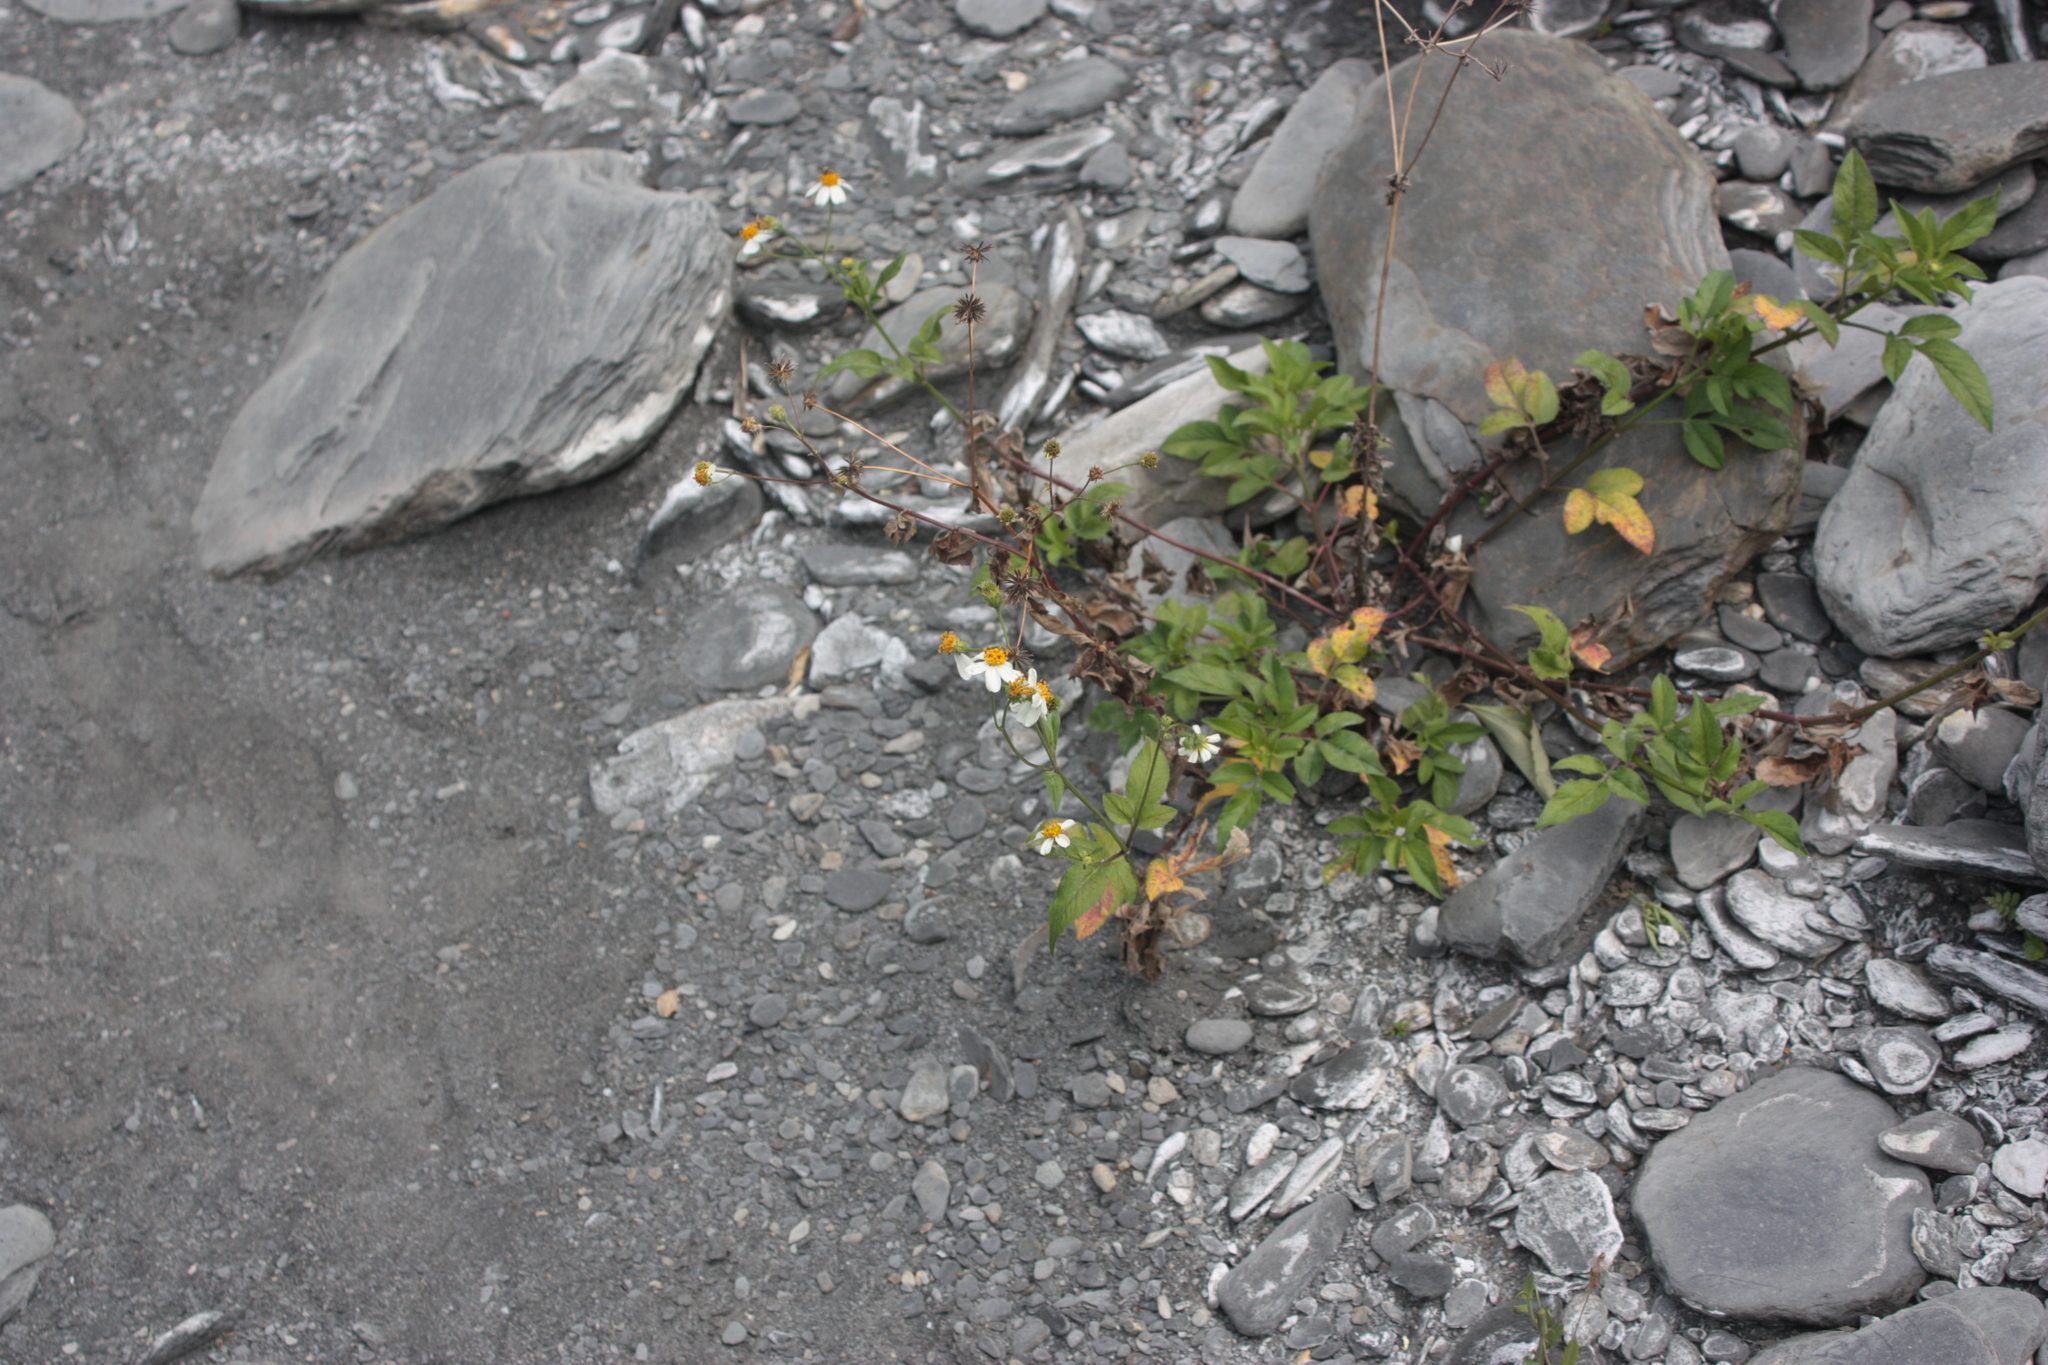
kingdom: Plantae
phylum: Tracheophyta
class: Magnoliopsida
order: Asterales
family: Asteraceae
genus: Bidens
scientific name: Bidens alba
